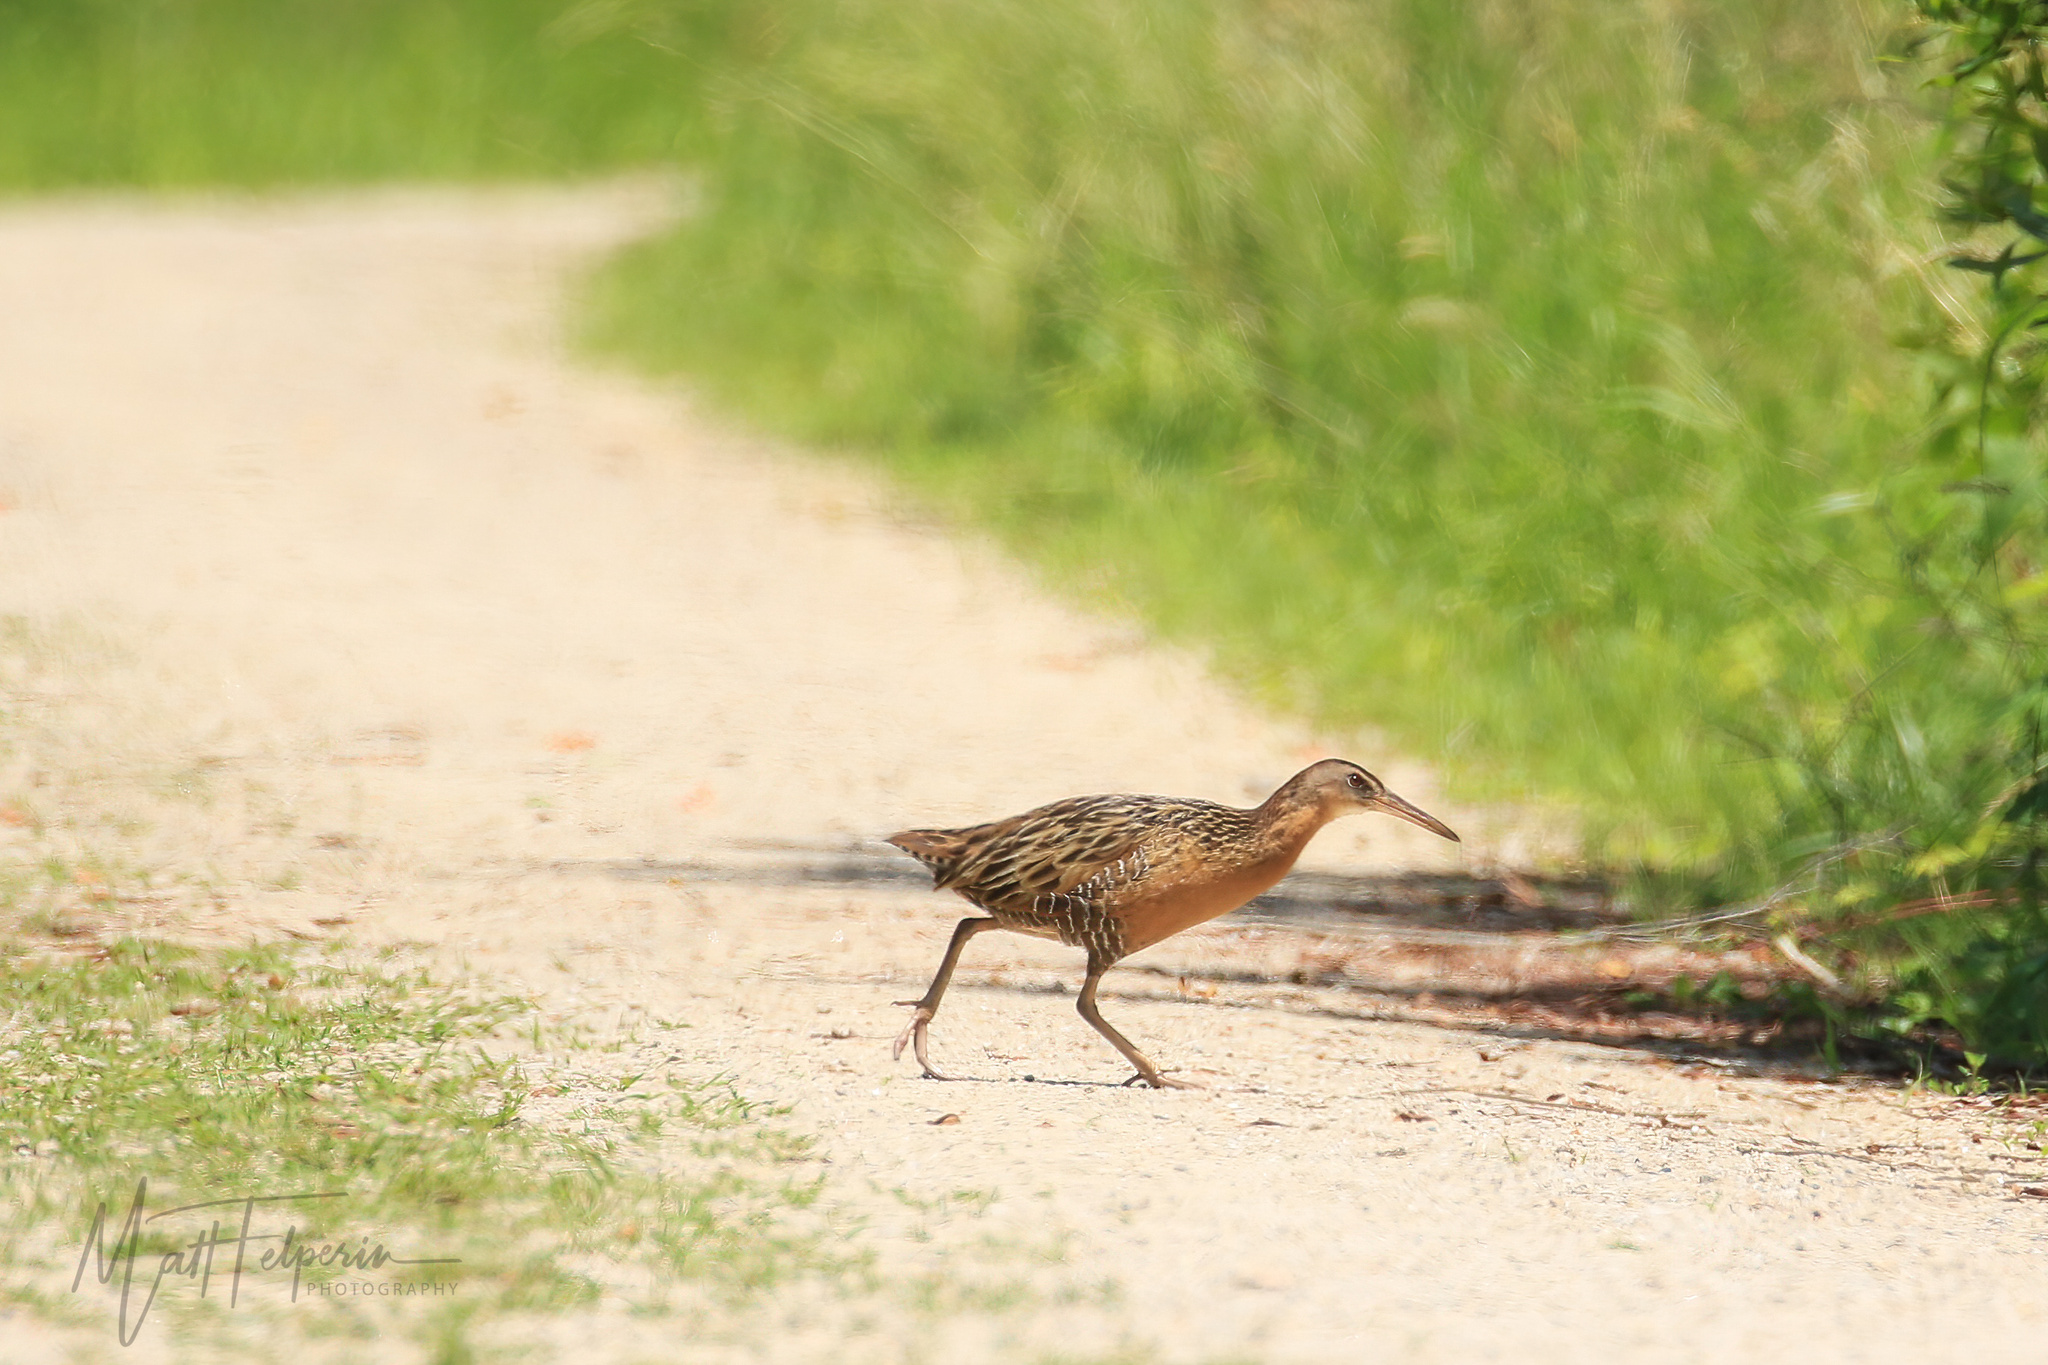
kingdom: Animalia
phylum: Chordata
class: Aves
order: Gruiformes
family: Rallidae
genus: Rallus
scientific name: Rallus elegans
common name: King rail
